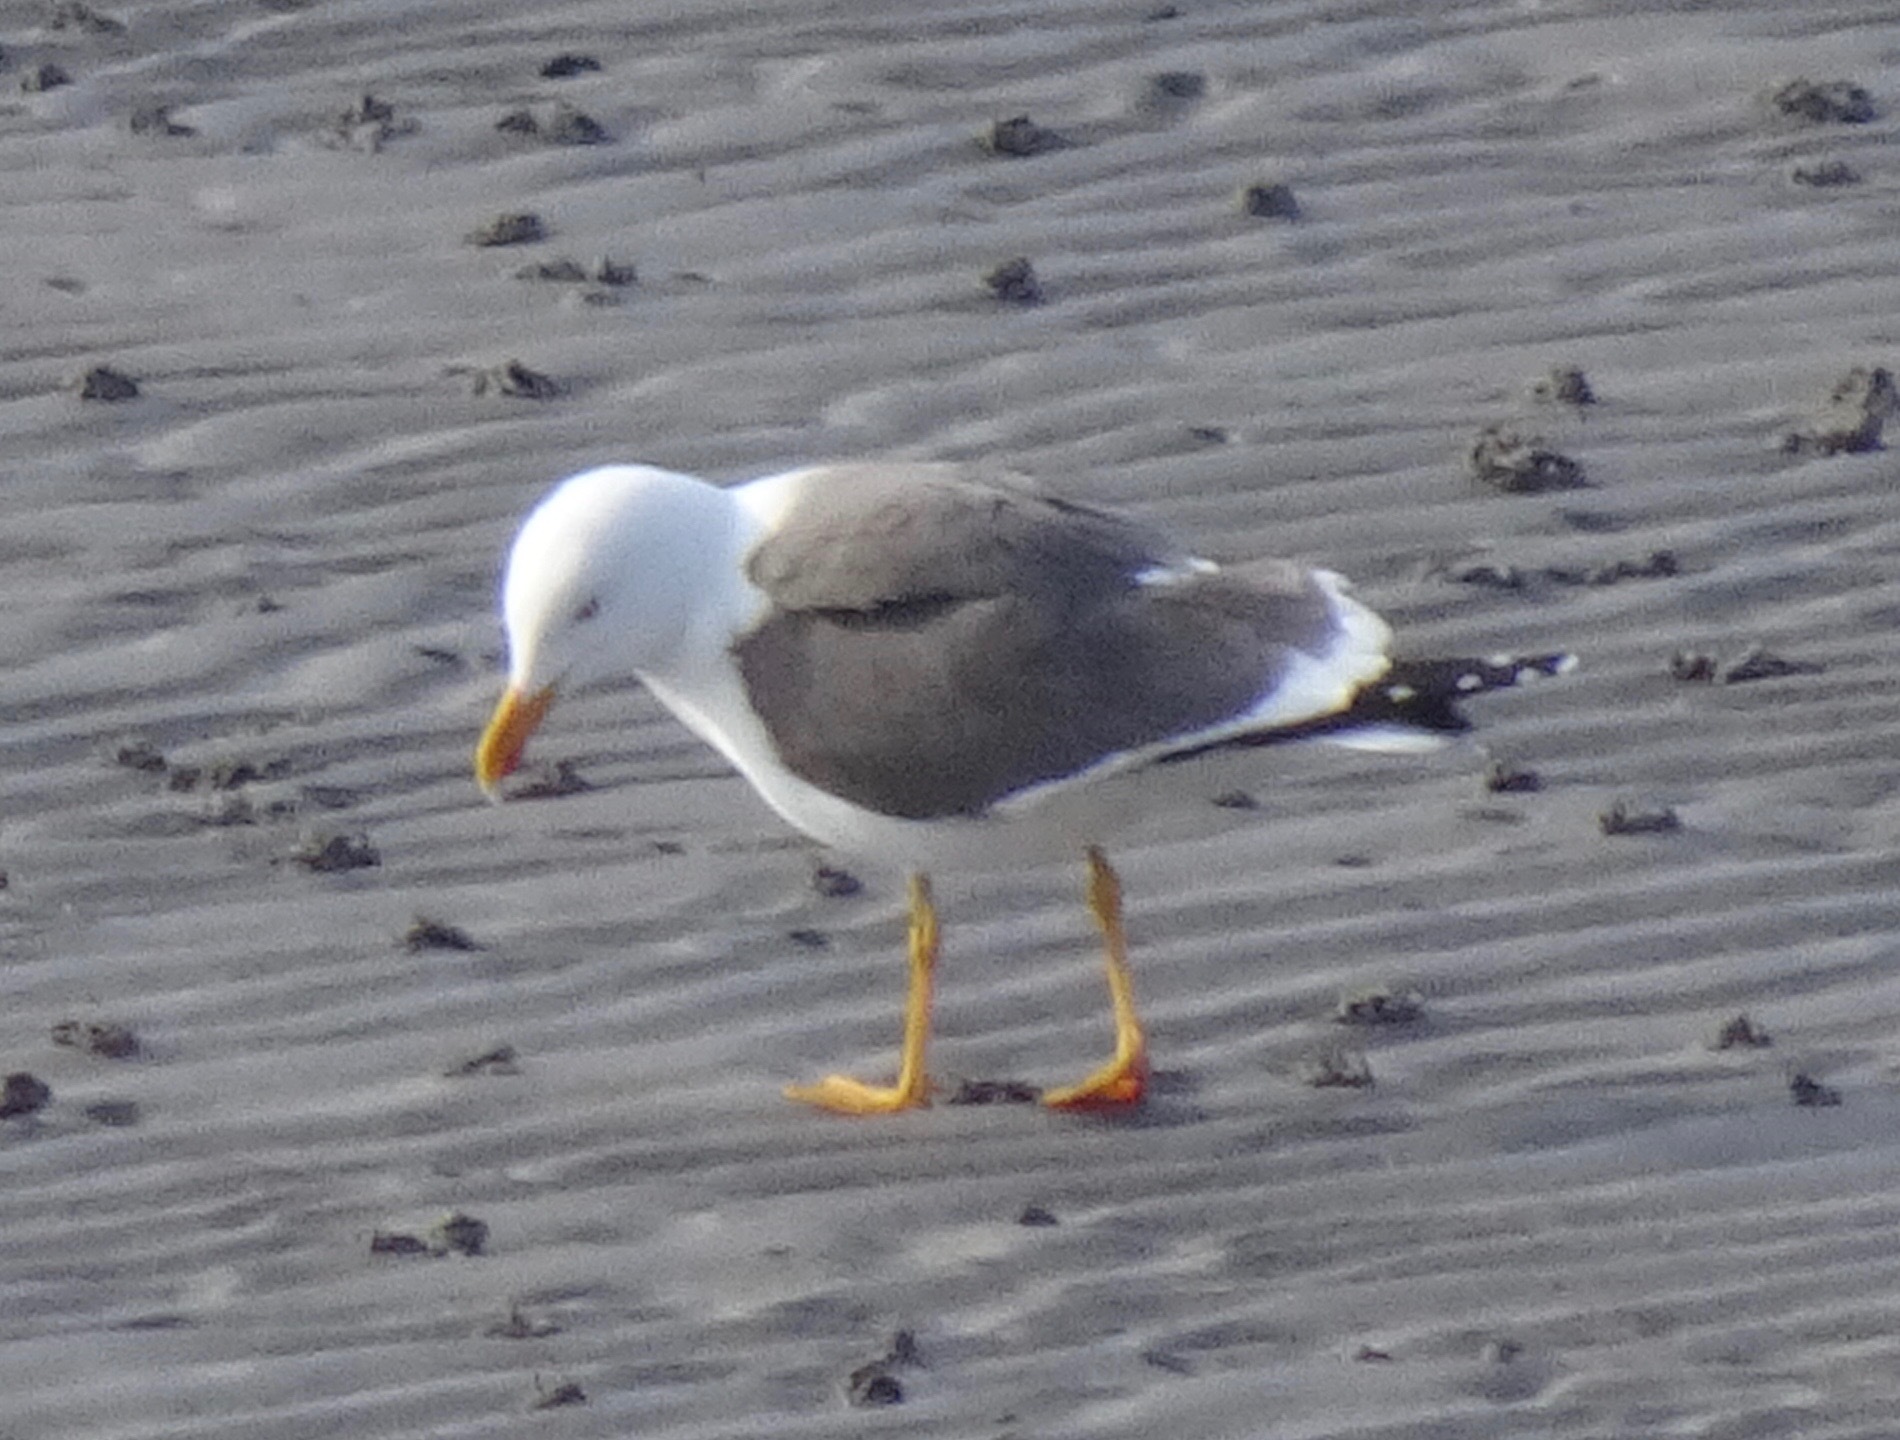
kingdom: Animalia
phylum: Chordata
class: Aves
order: Charadriiformes
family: Laridae
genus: Larus
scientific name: Larus fuscus
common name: Lesser black-backed gull
